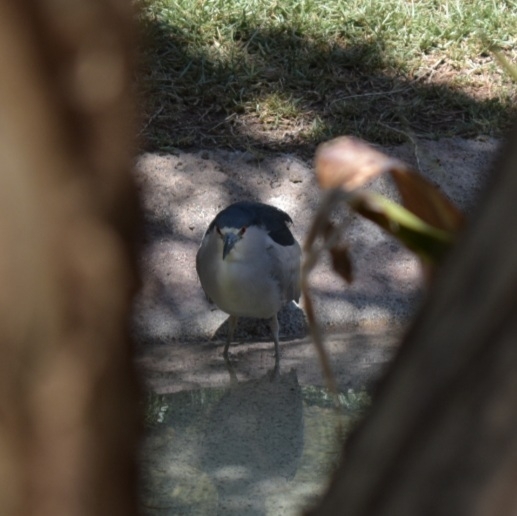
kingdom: Animalia
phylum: Chordata
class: Aves
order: Pelecaniformes
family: Ardeidae
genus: Nycticorax
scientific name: Nycticorax nycticorax
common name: Black-crowned night heron
